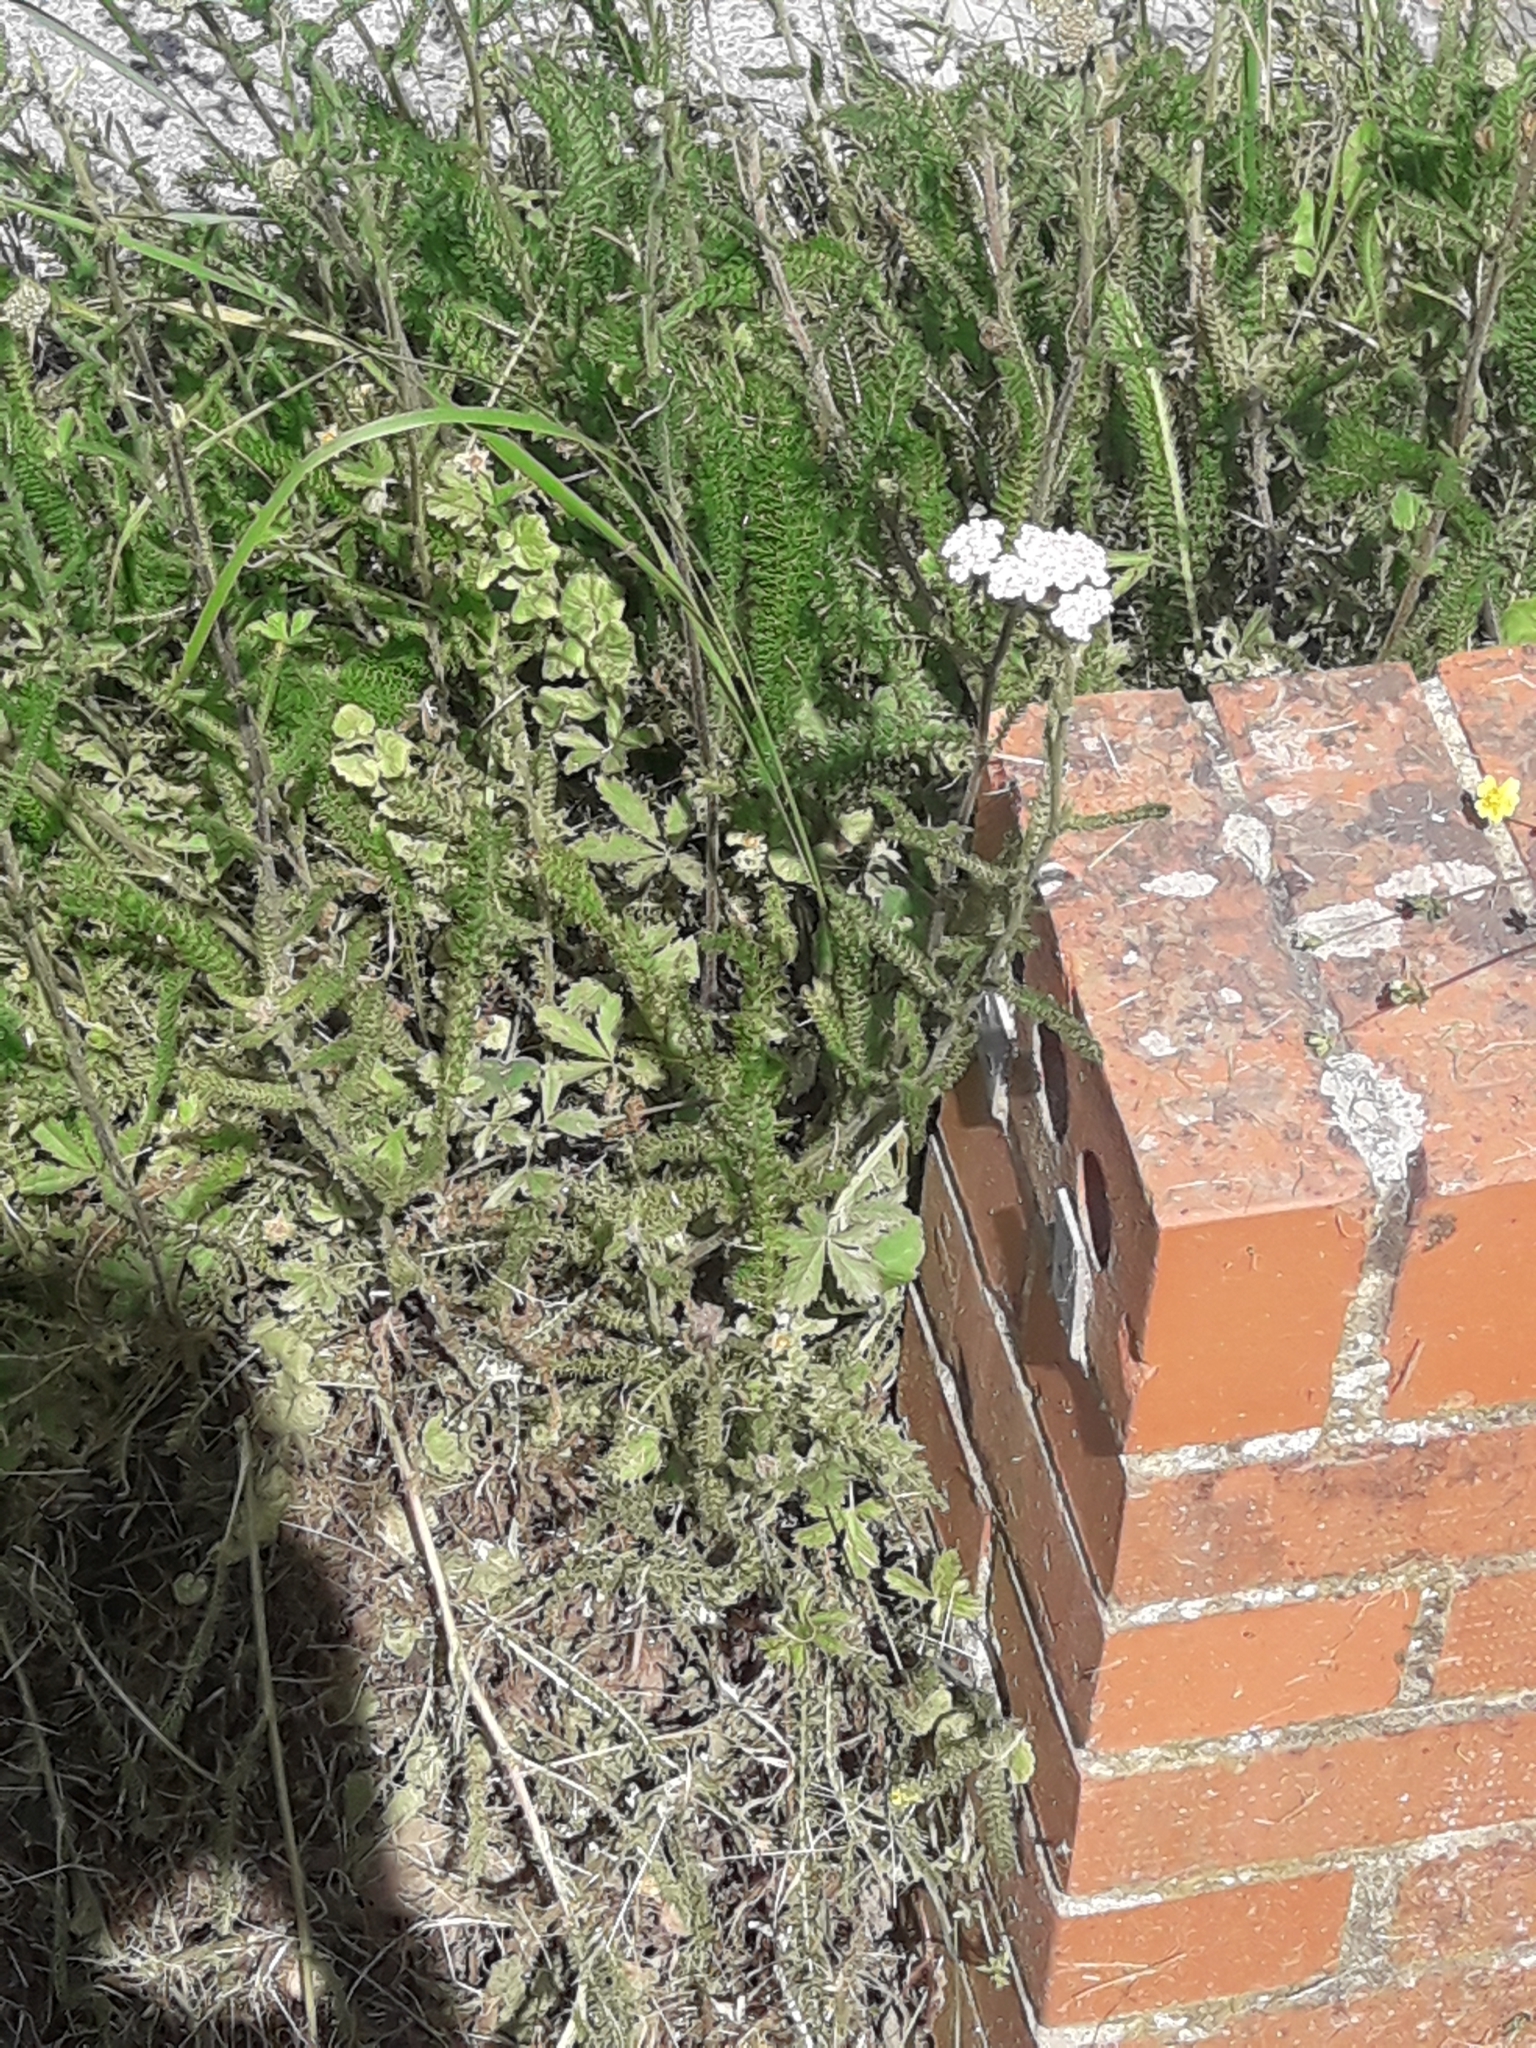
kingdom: Plantae
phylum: Tracheophyta
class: Magnoliopsida
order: Asterales
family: Asteraceae
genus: Achillea
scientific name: Achillea millefolium
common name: Yarrow
